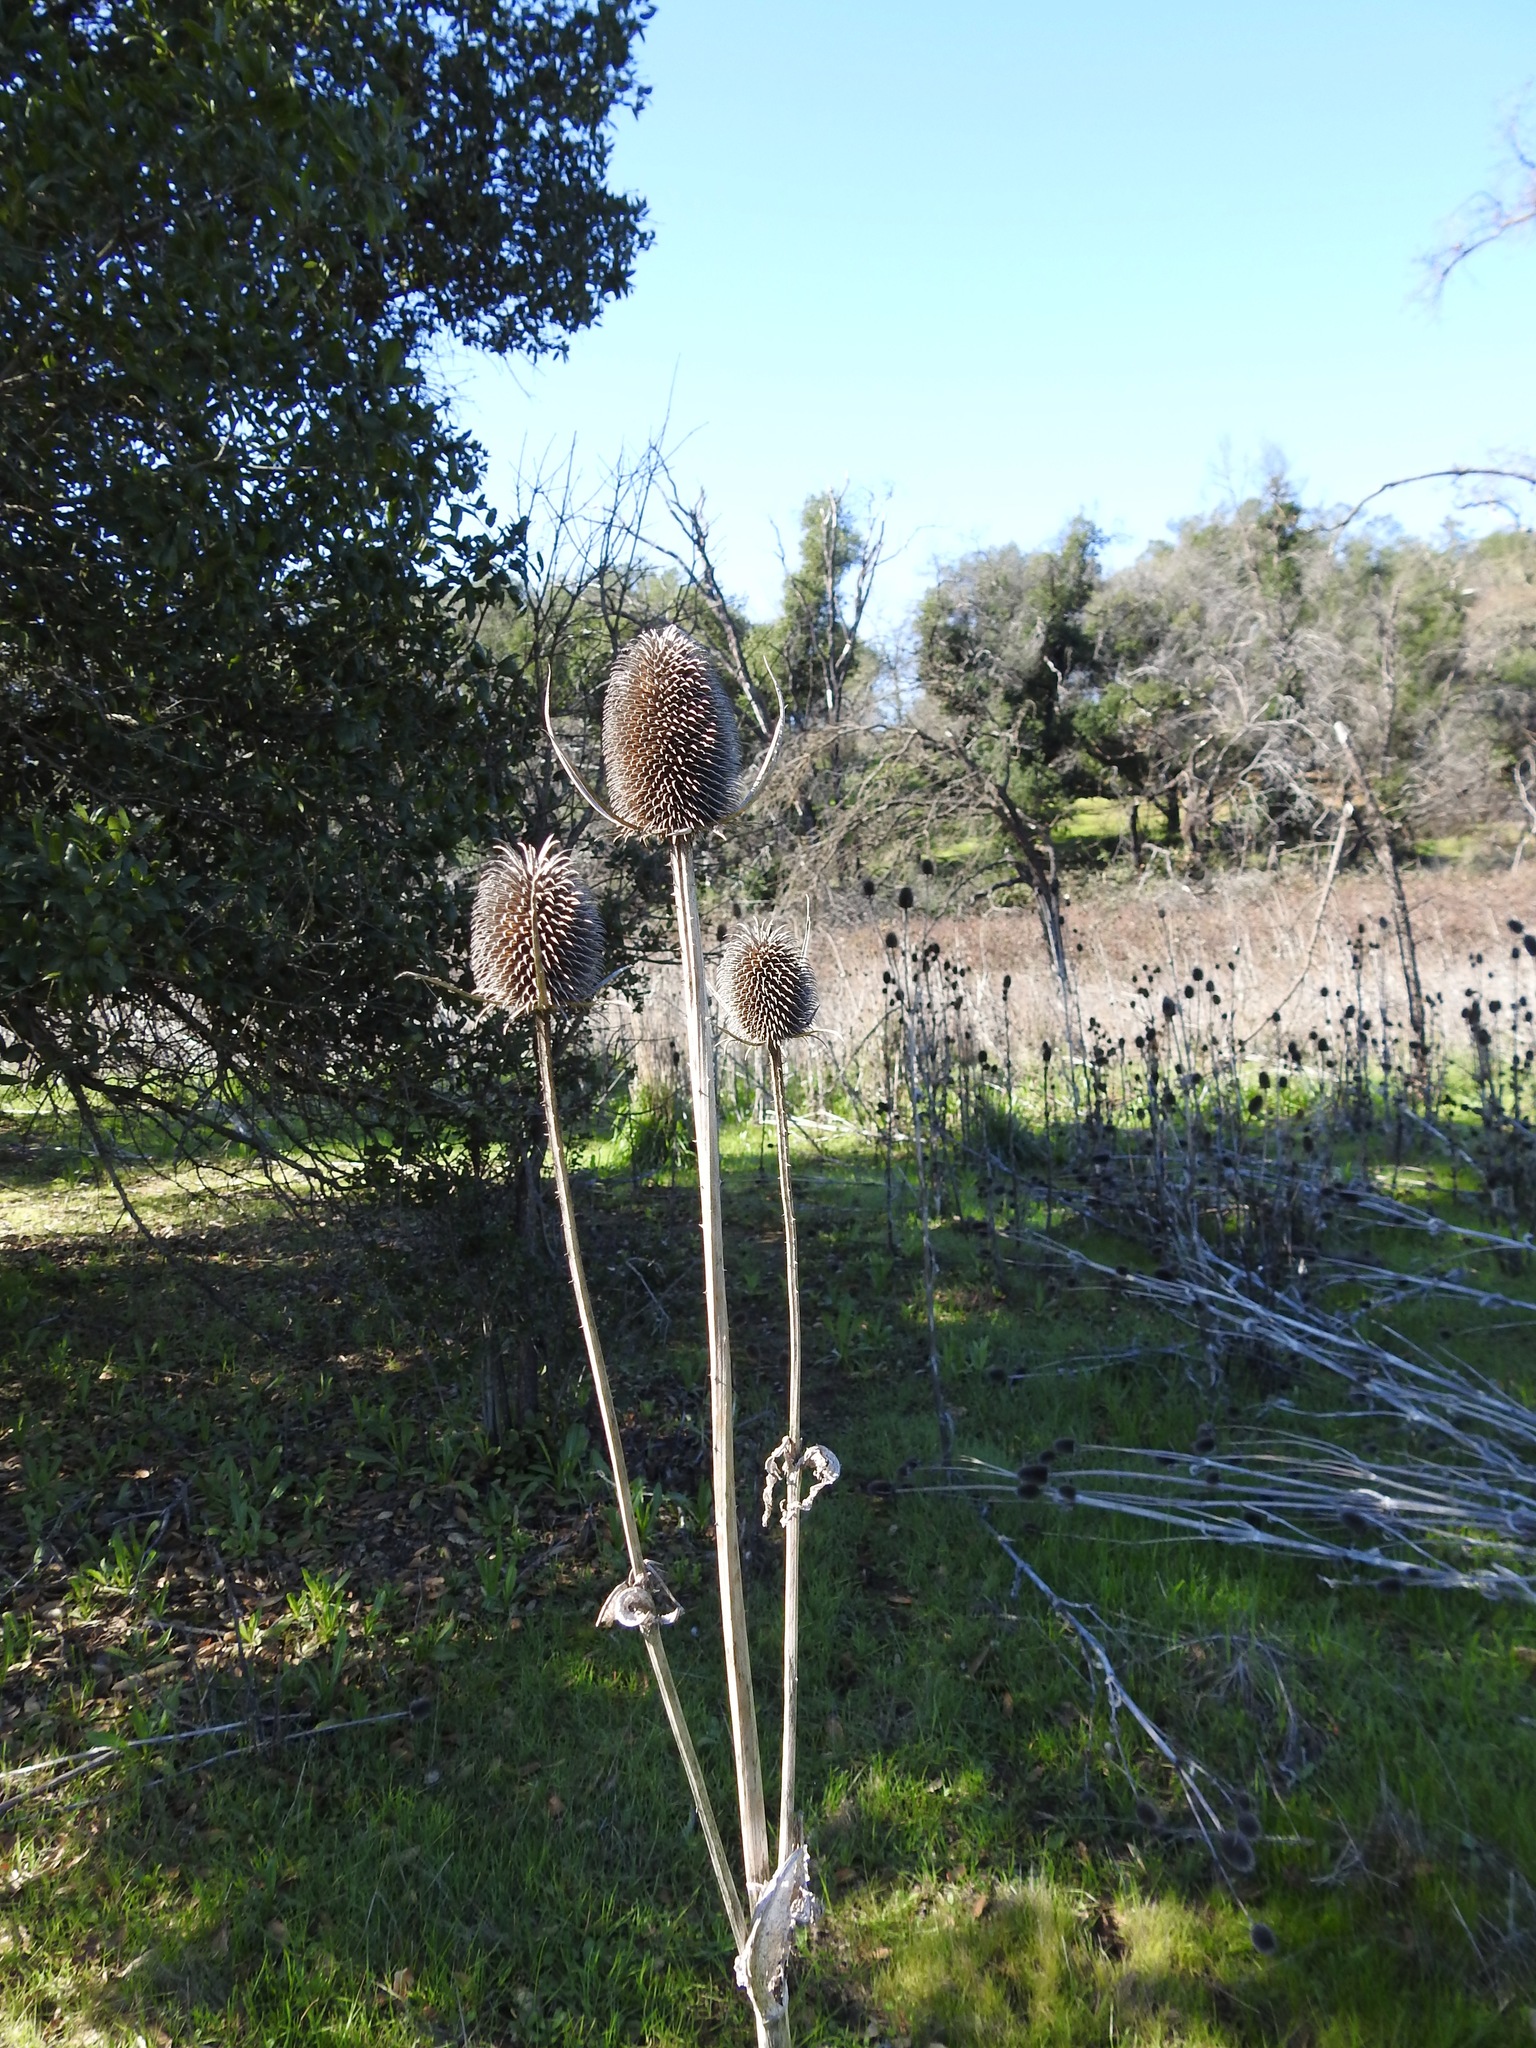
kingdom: Plantae
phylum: Tracheophyta
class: Magnoliopsida
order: Dipsacales
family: Caprifoliaceae
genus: Dipsacus
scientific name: Dipsacus sativus
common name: Fuller's teasel
